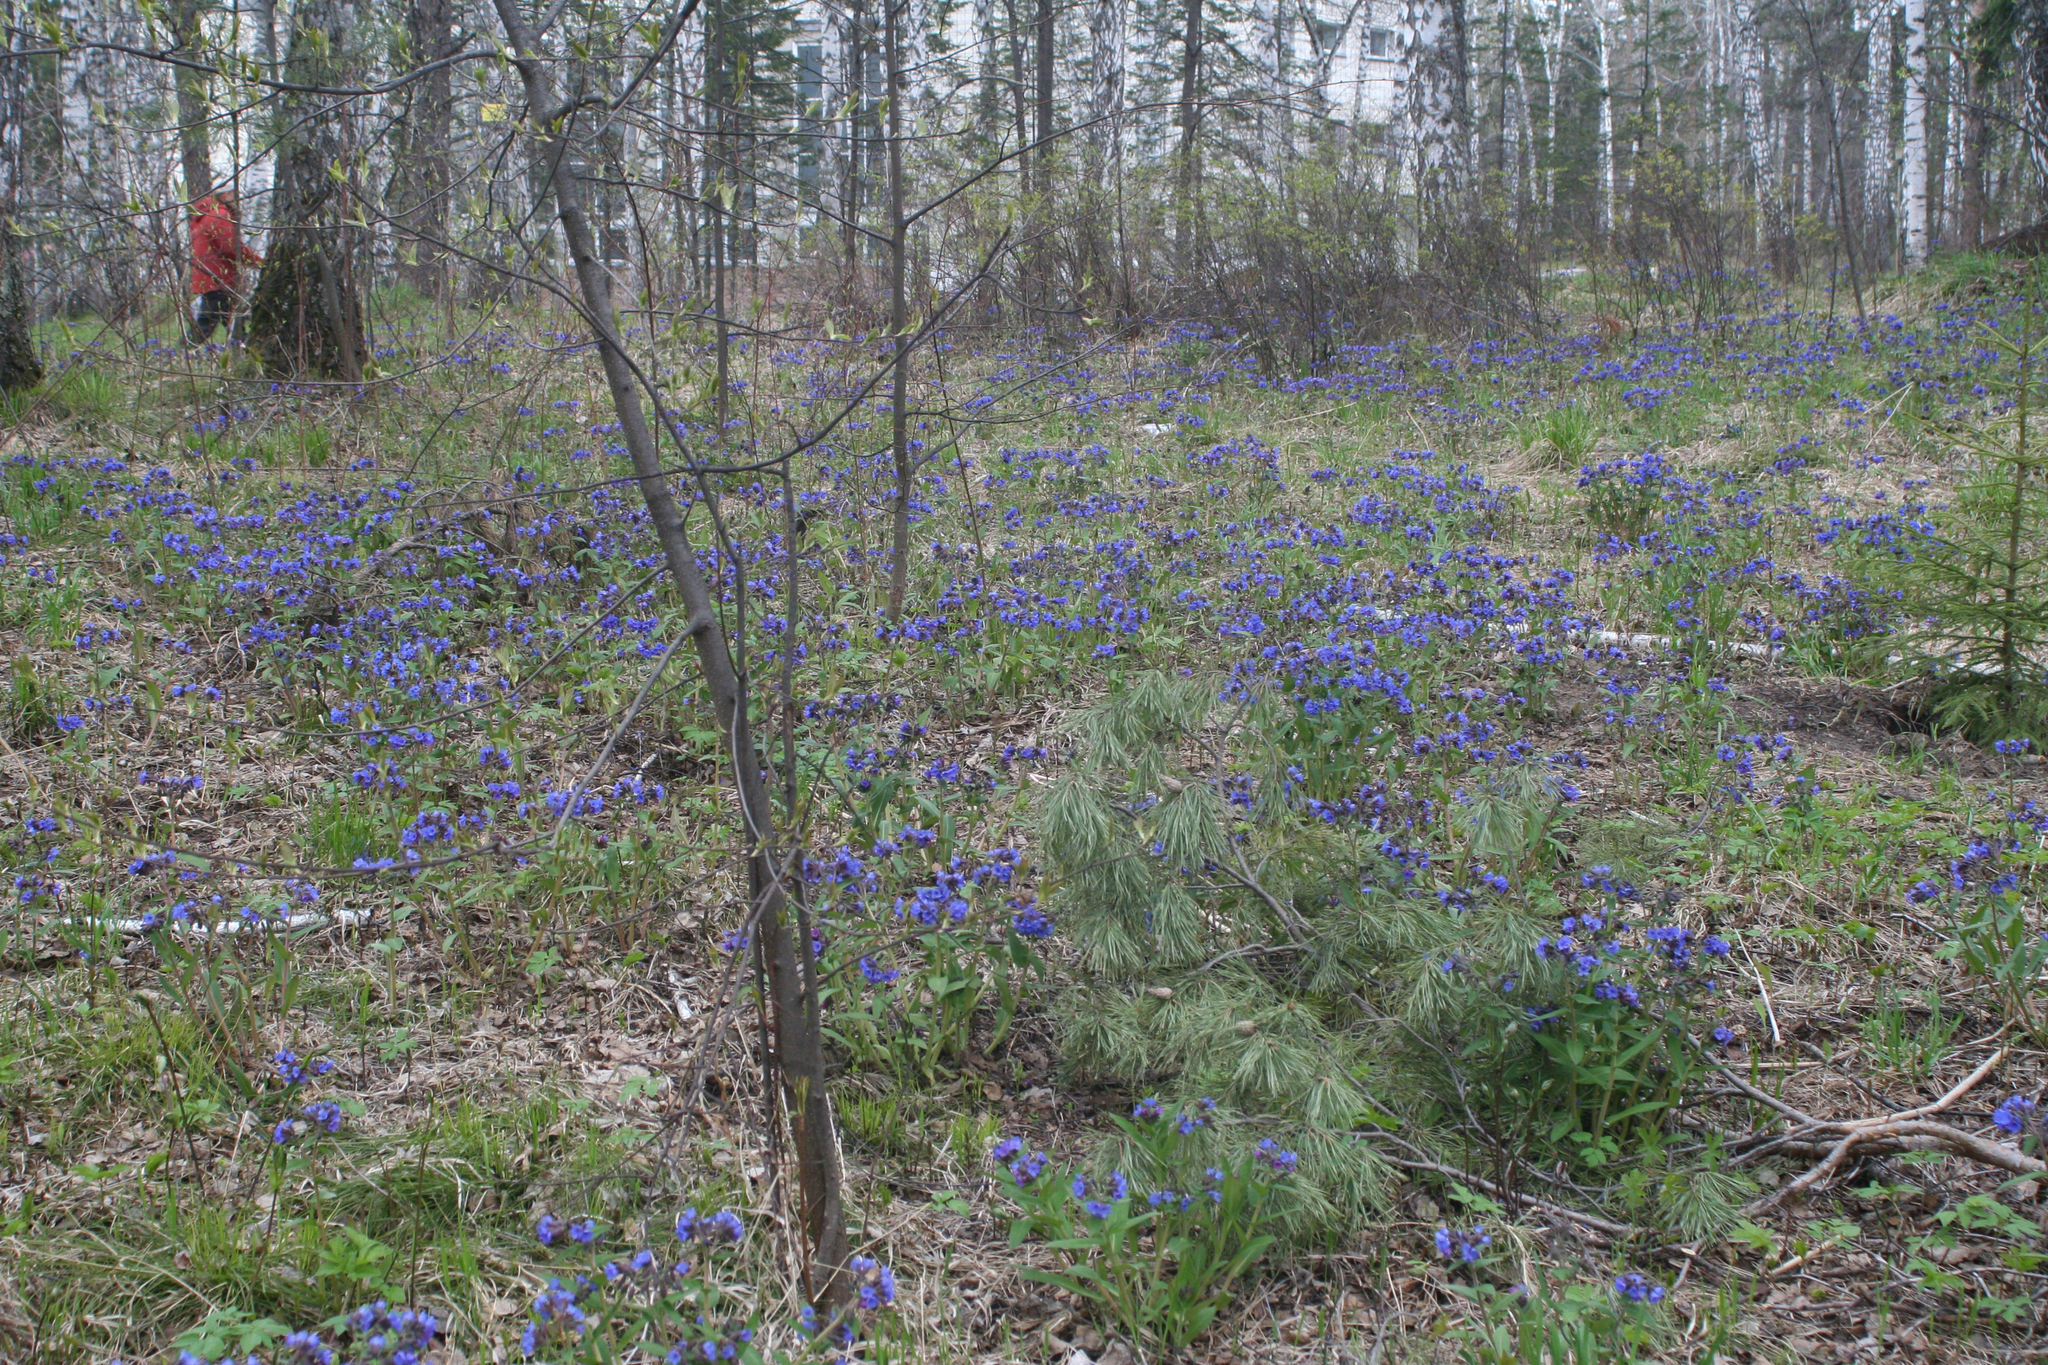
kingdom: Plantae
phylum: Tracheophyta
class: Magnoliopsida
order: Boraginales
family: Boraginaceae
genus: Pulmonaria
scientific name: Pulmonaria mollis
